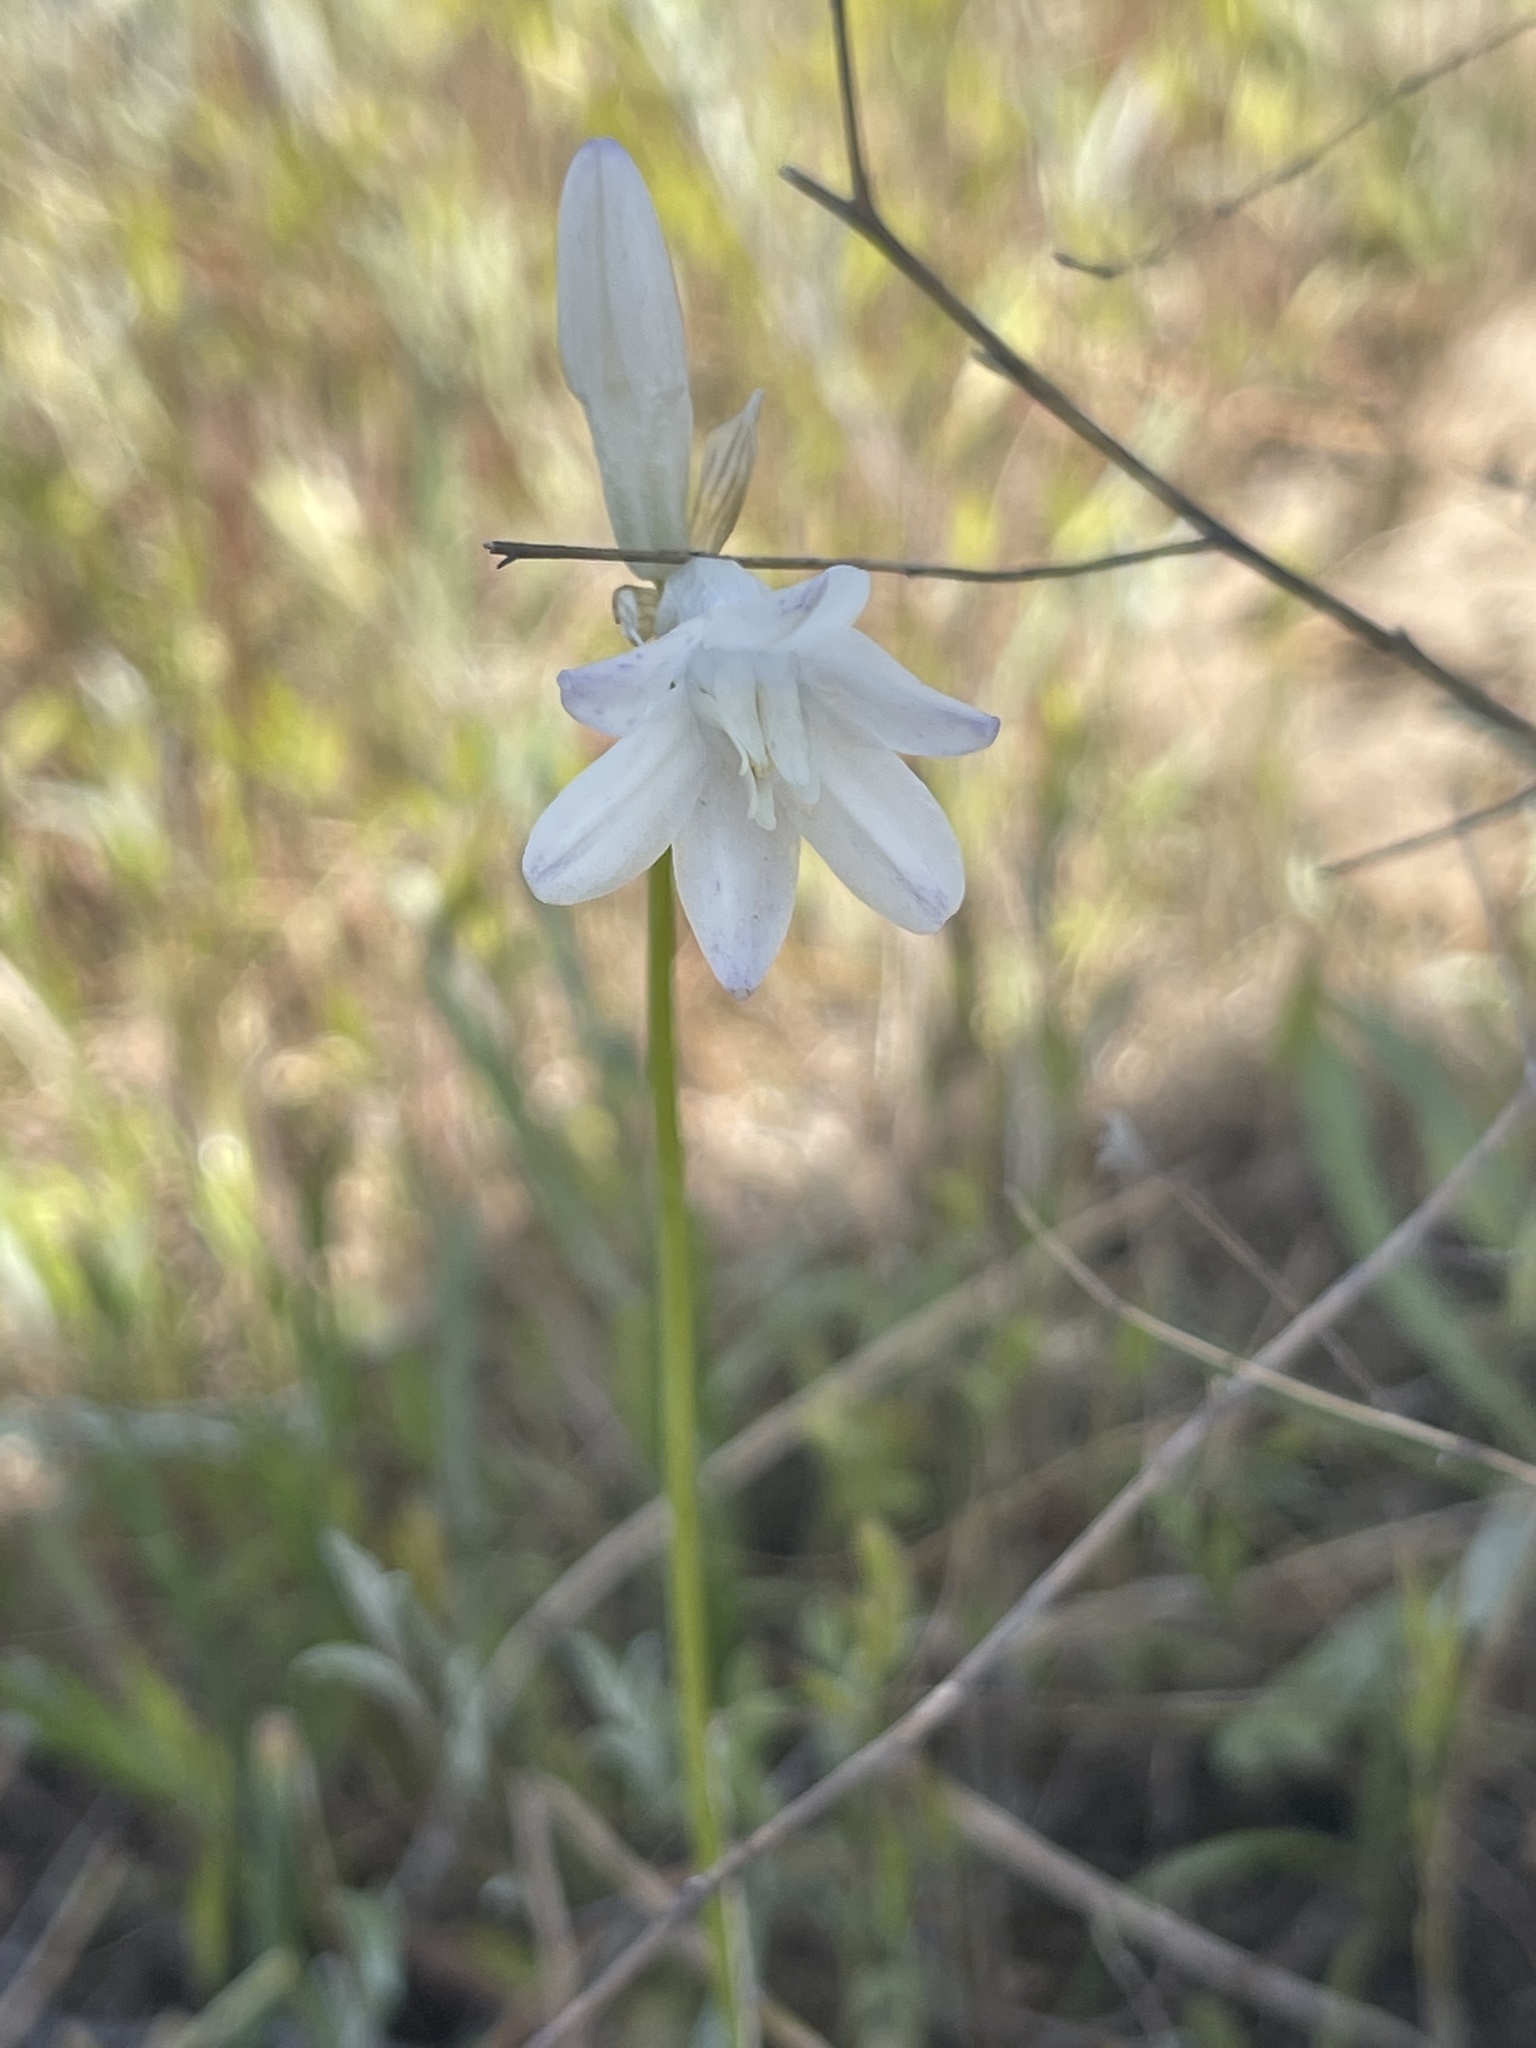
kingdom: Plantae
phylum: Tracheophyta
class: Liliopsida
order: Asparagales
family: Asparagaceae
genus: Dipterostemon
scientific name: Dipterostemon capitatus
